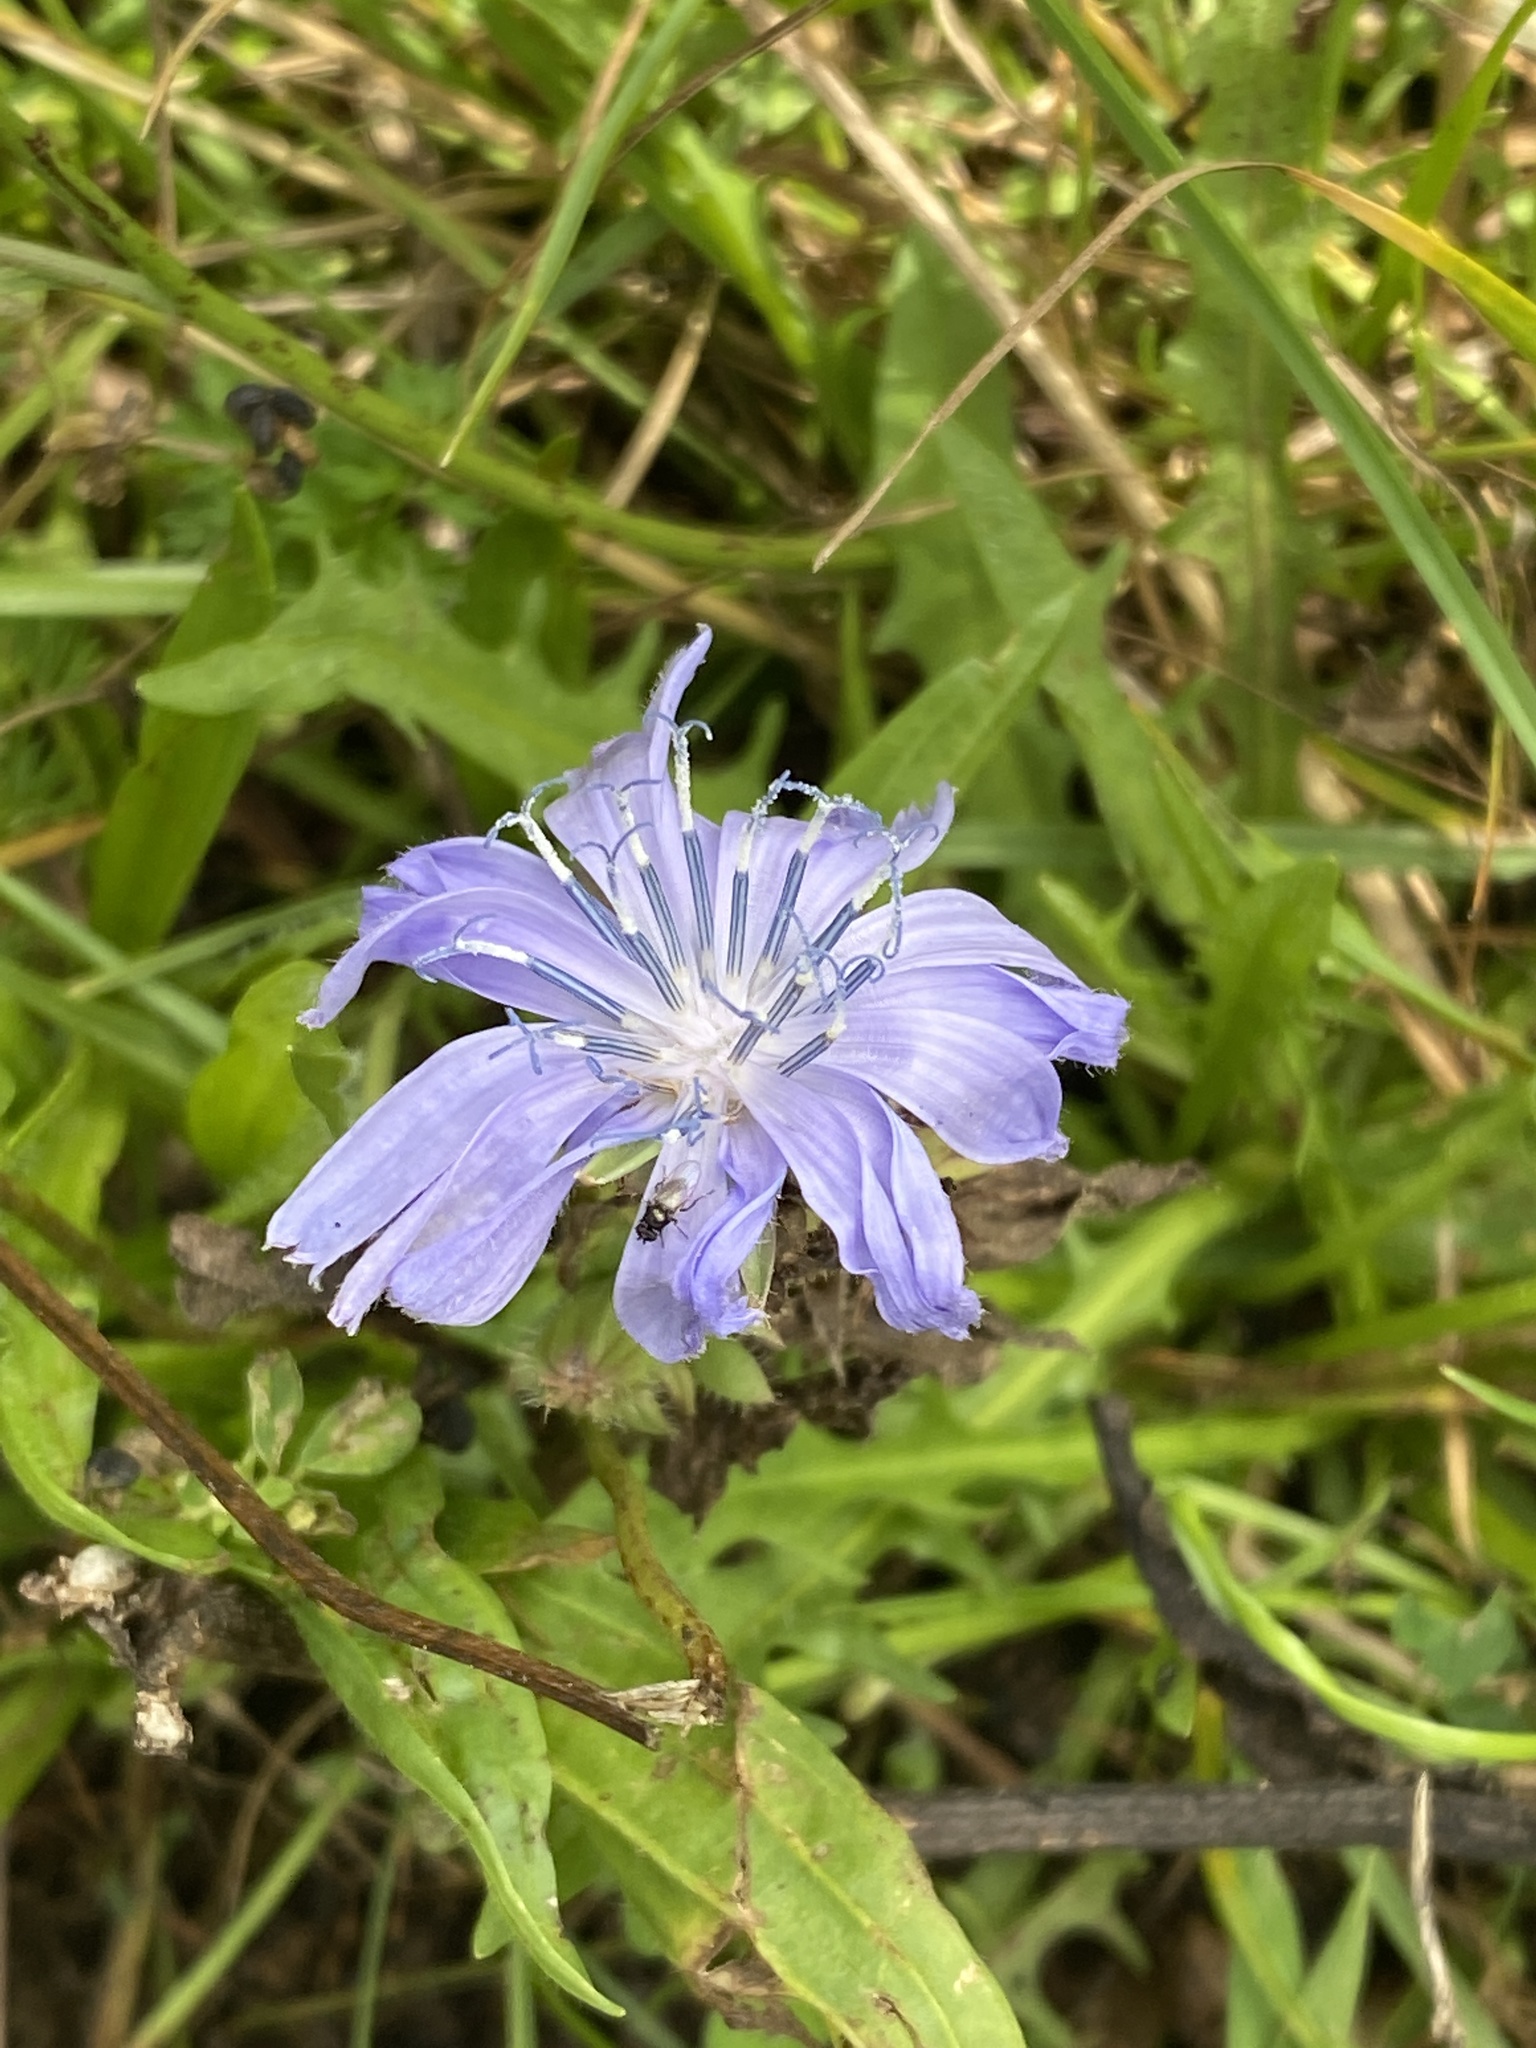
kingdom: Plantae
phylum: Tracheophyta
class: Magnoliopsida
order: Asterales
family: Asteraceae
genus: Cichorium
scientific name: Cichorium intybus
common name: Chicory
